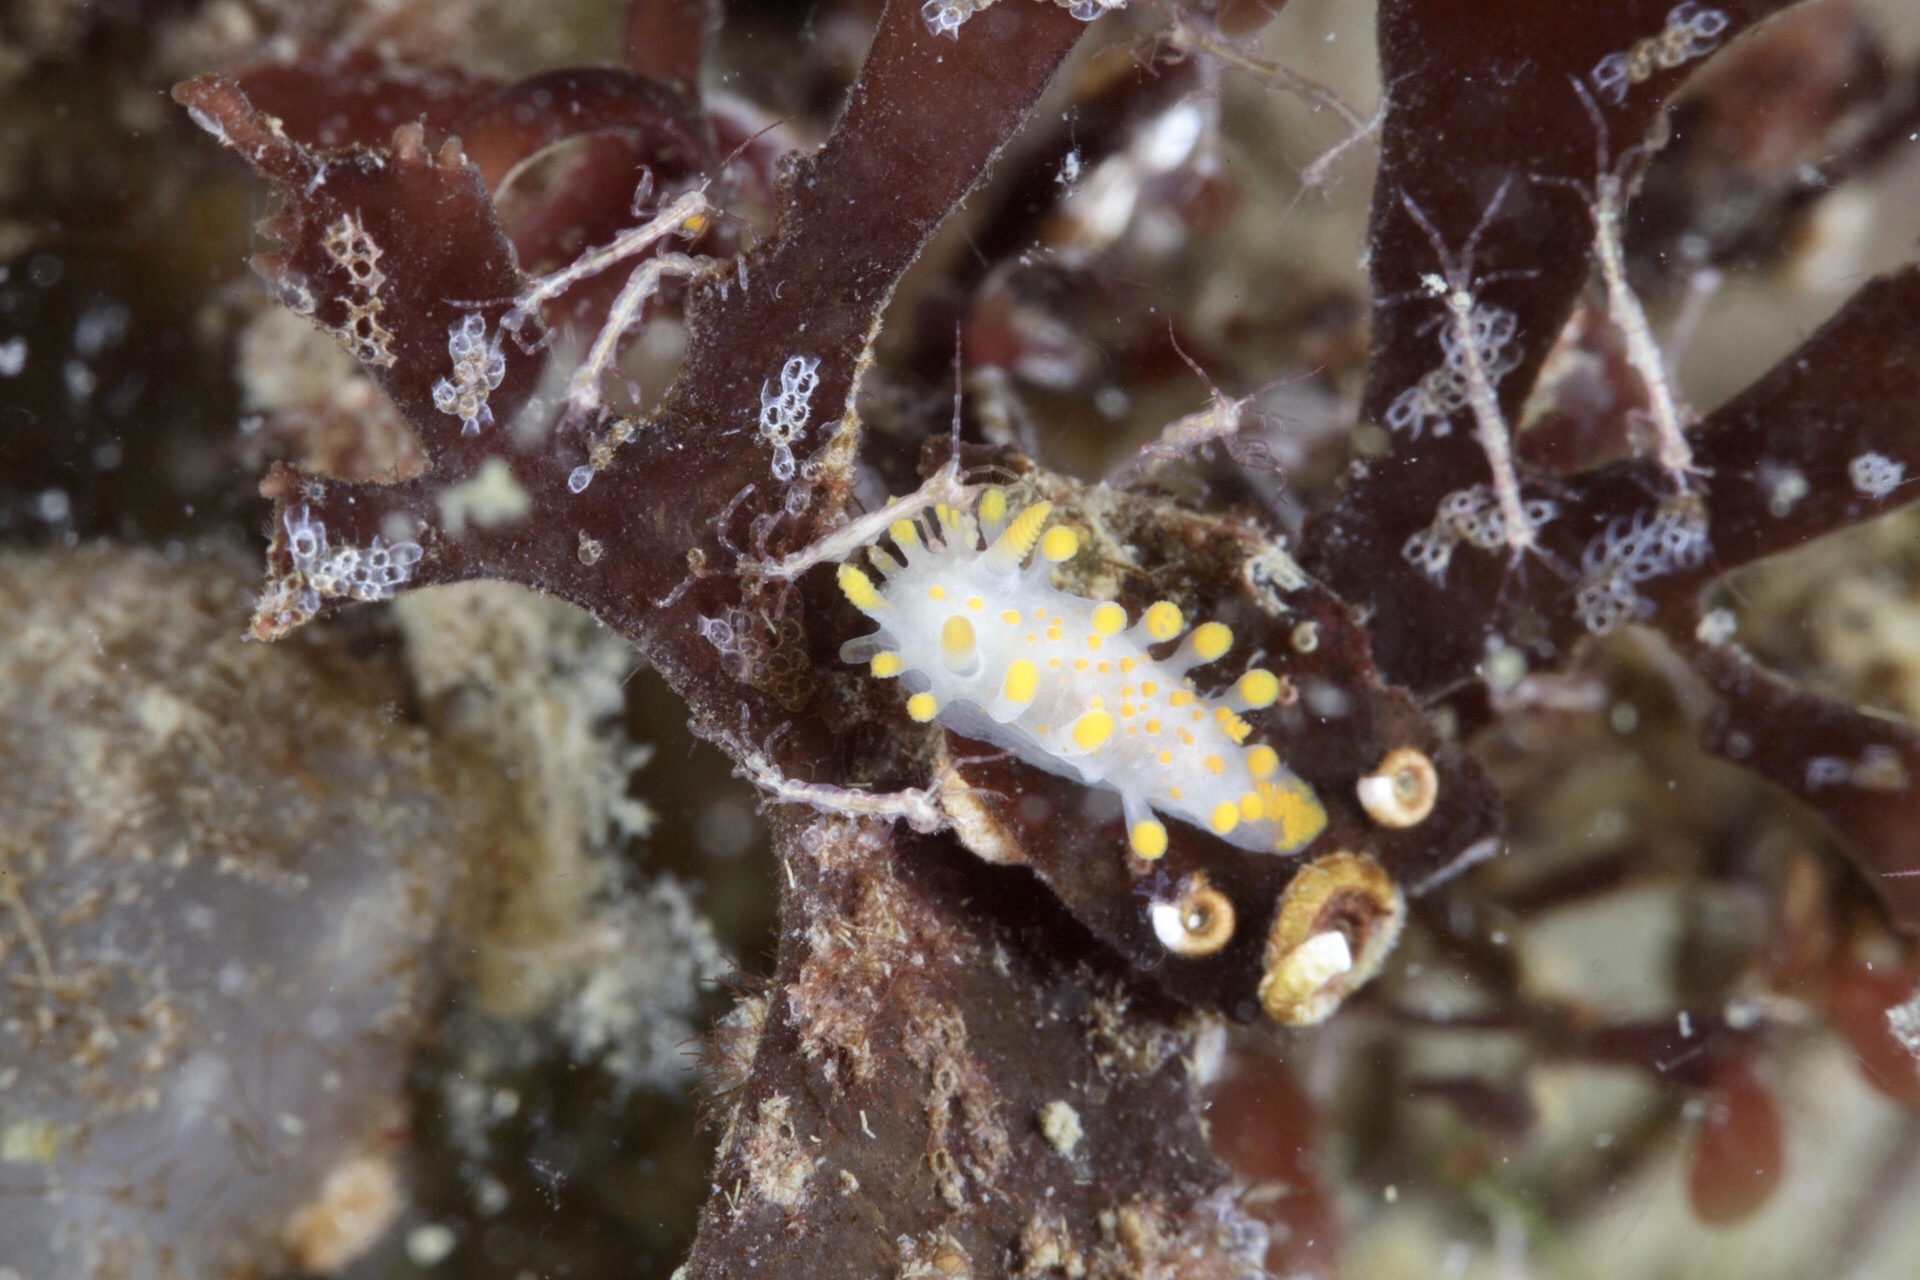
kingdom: Animalia
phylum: Mollusca
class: Gastropoda
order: Nudibranchia
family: Polyceridae
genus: Limacia
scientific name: Limacia clavigera
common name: Orange-clubbed sea slug
